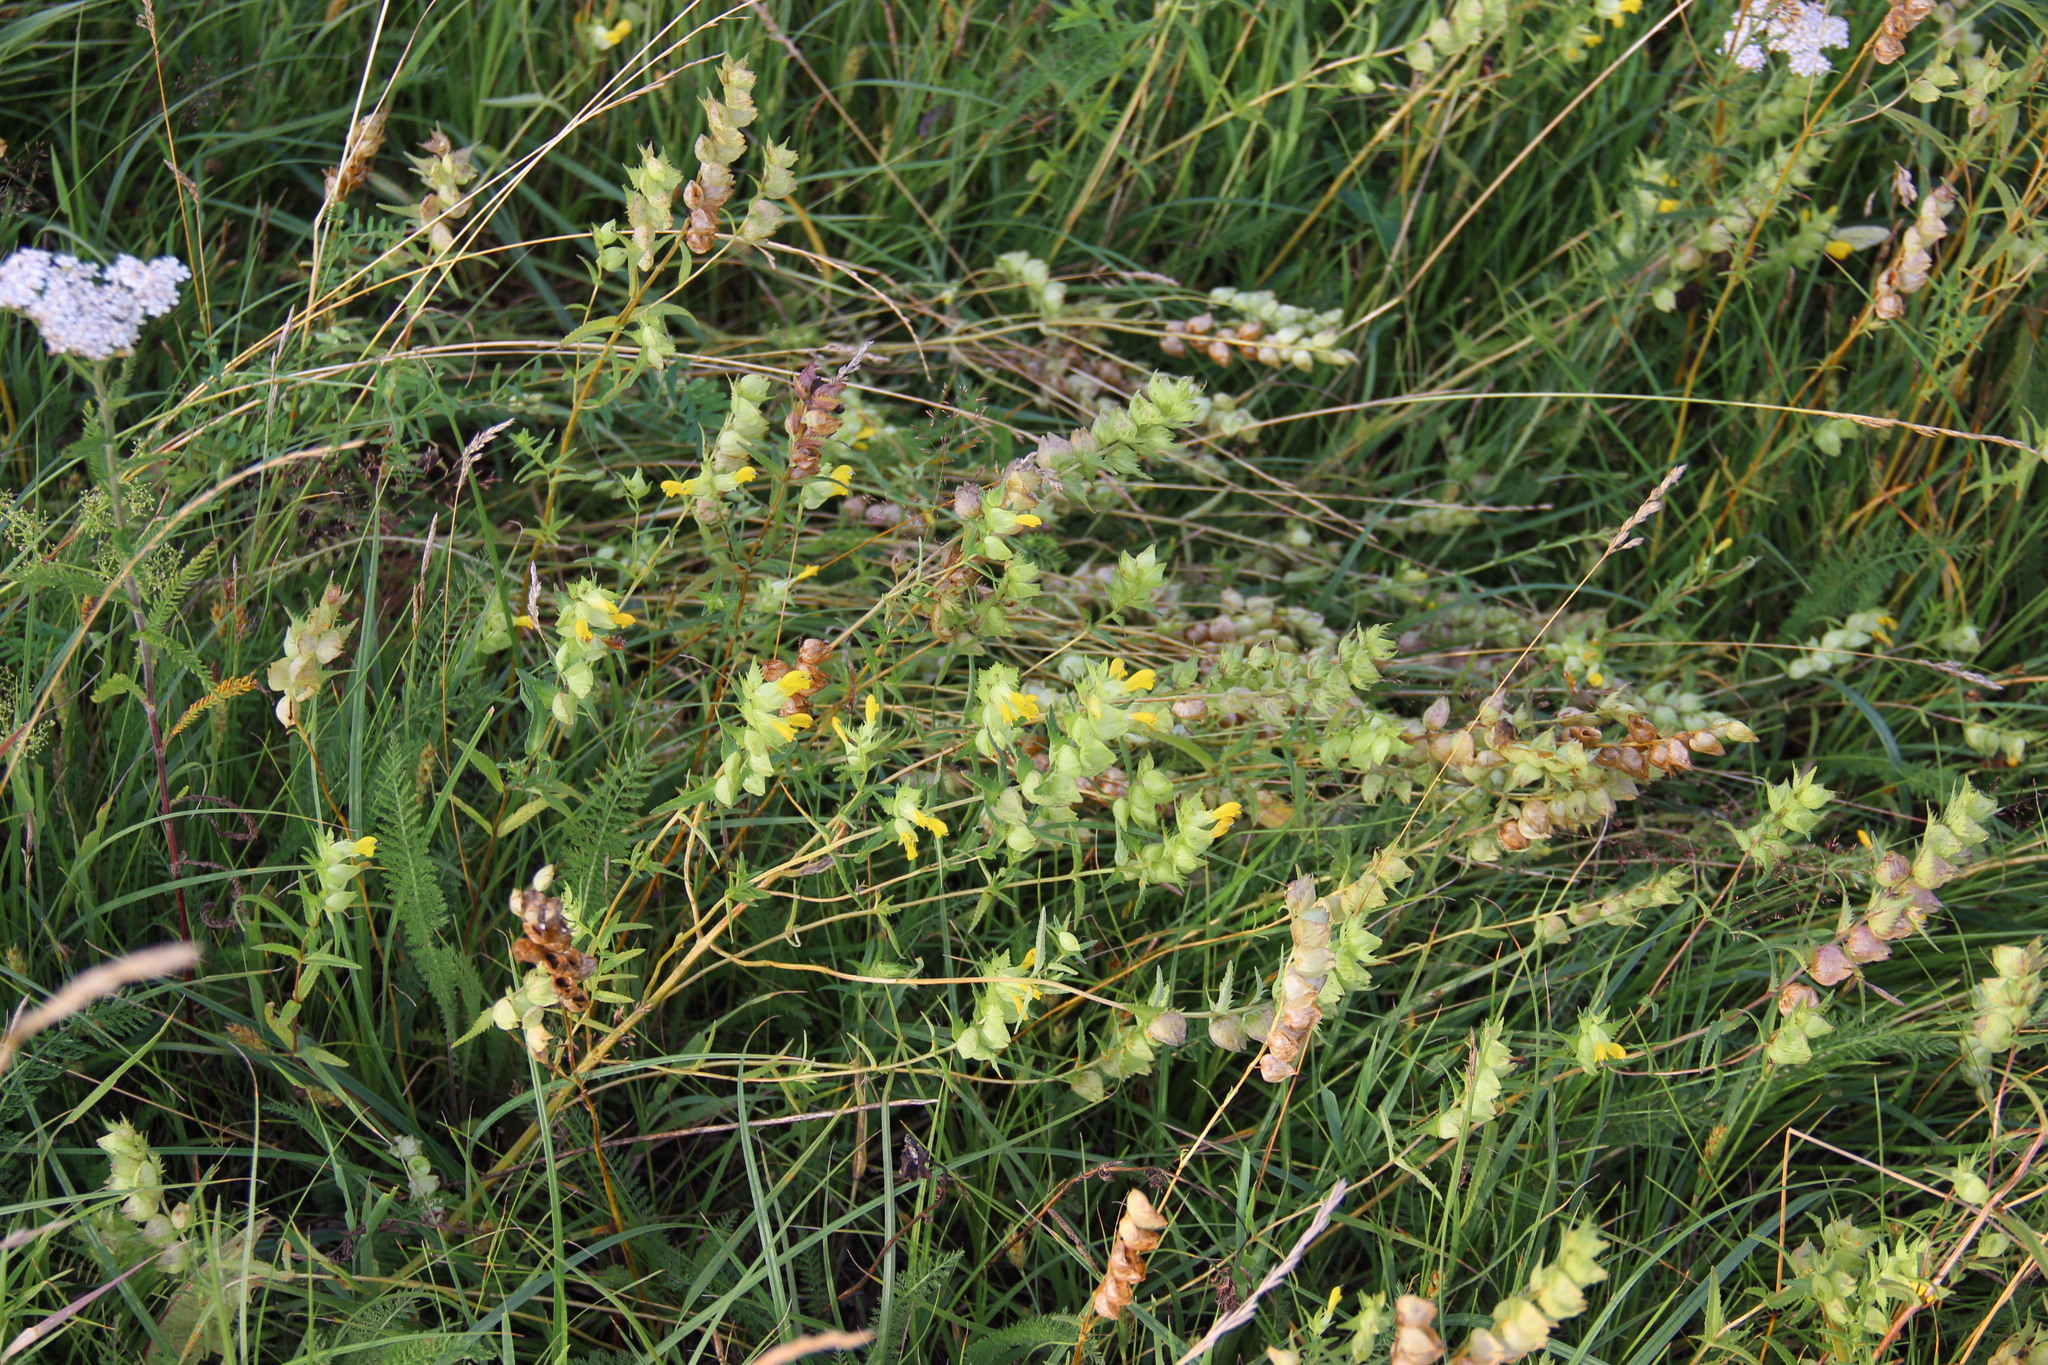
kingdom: Plantae
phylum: Tracheophyta
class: Magnoliopsida
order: Lamiales
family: Orobanchaceae
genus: Rhinanthus
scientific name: Rhinanthus serotinus
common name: Late-flowering yellow rattle
